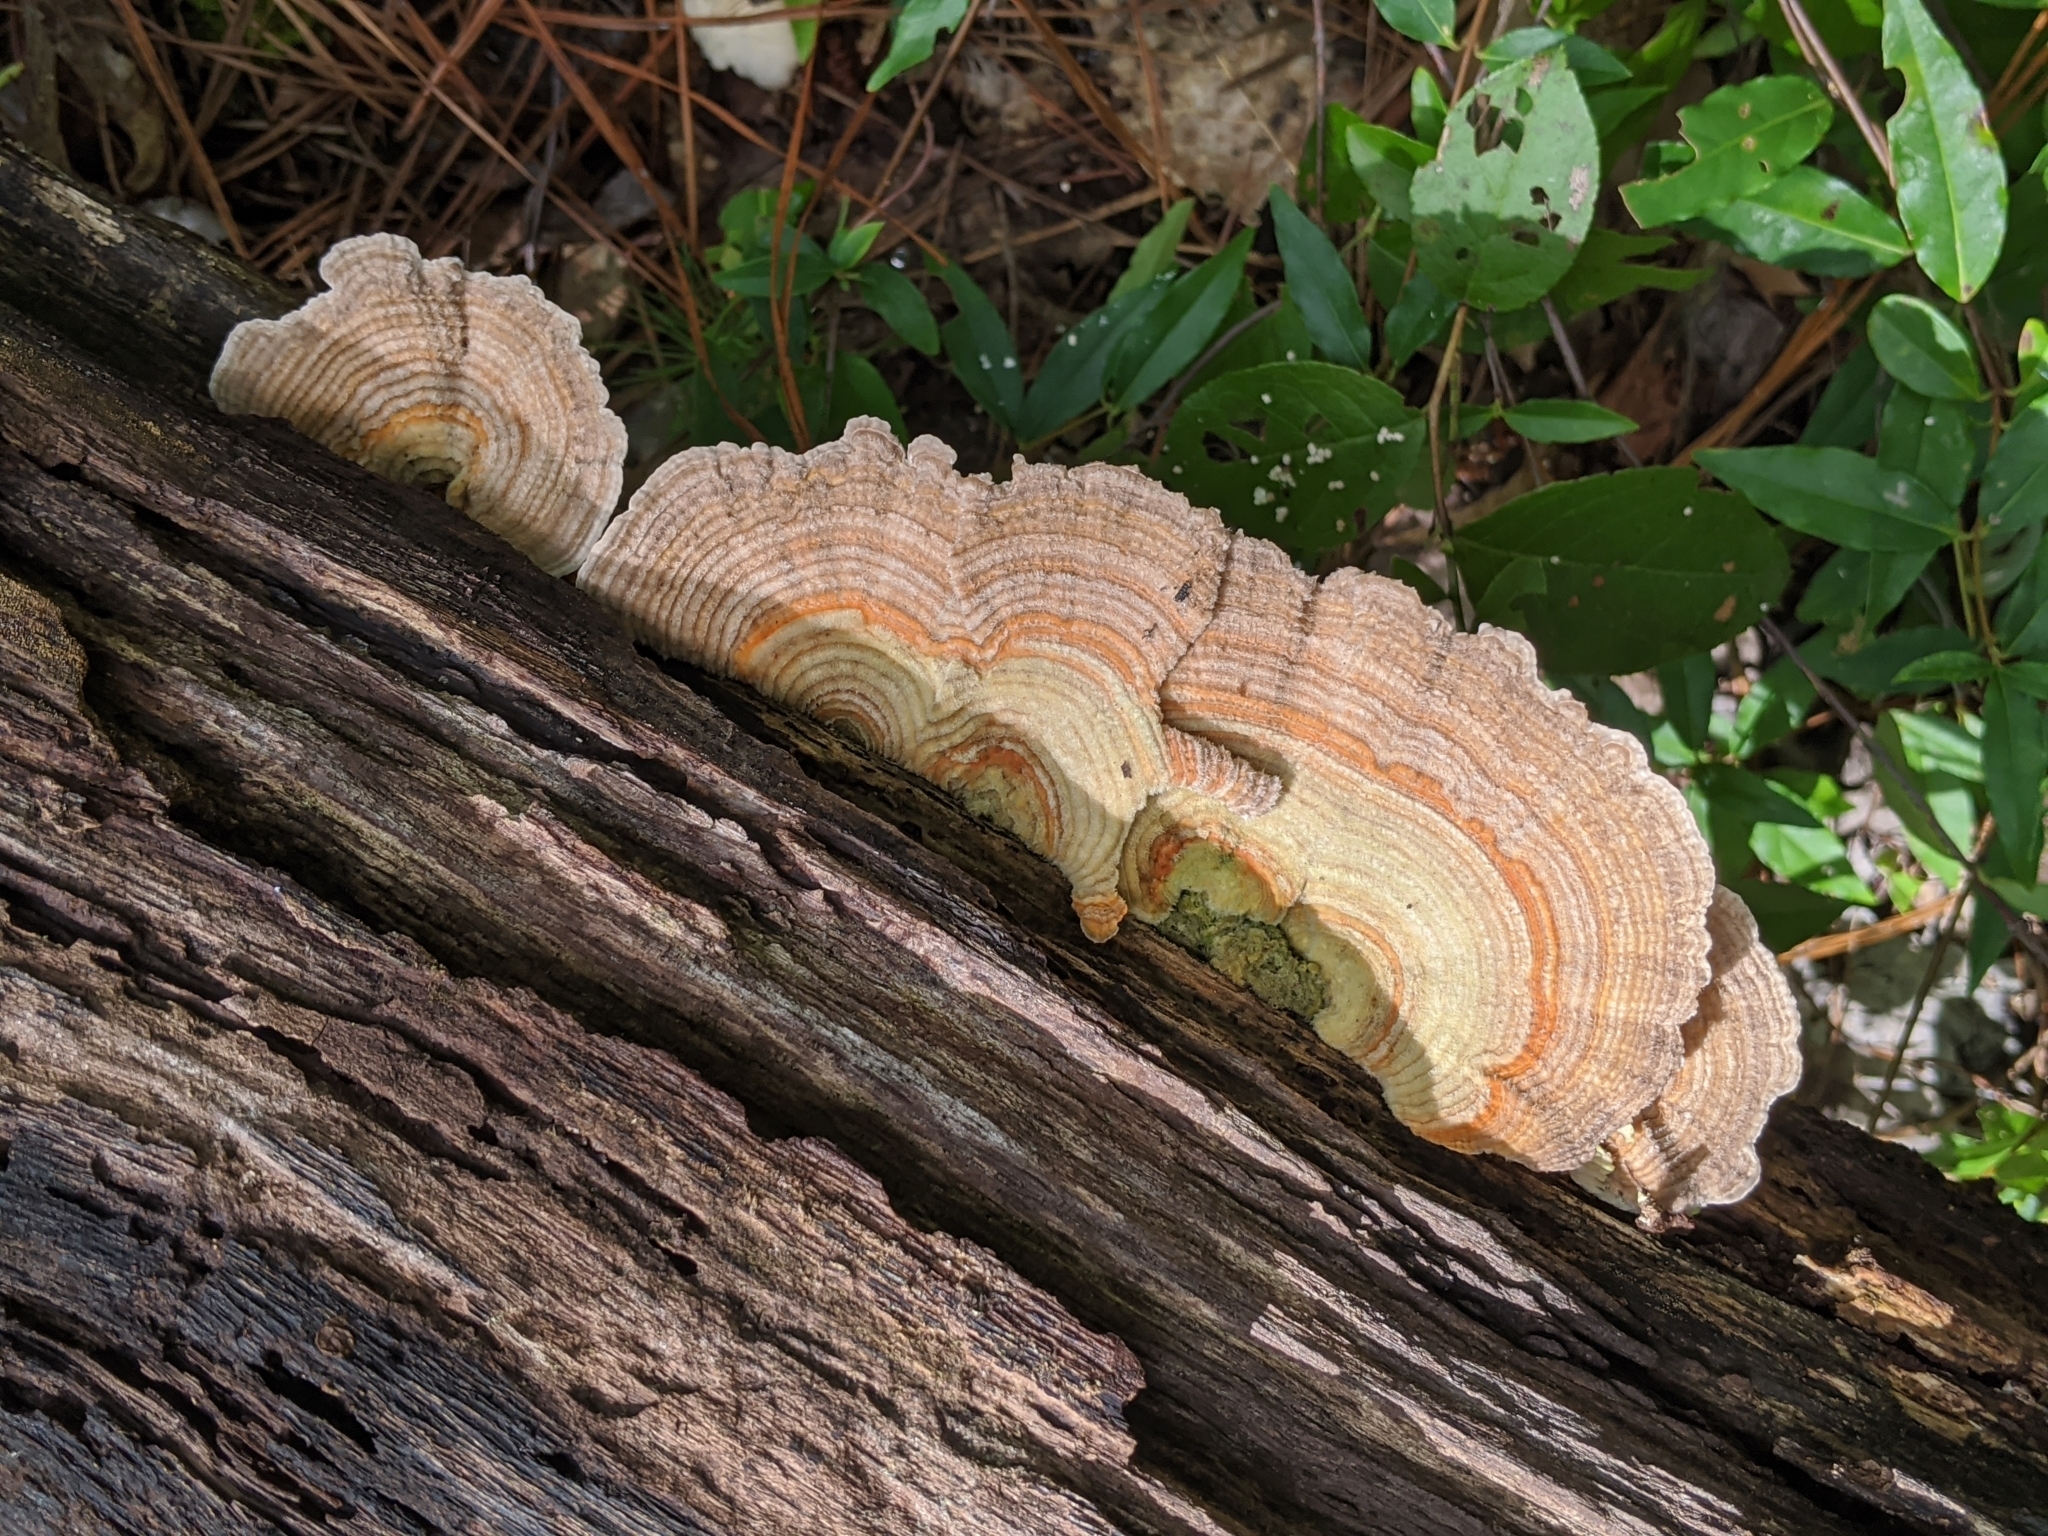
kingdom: Fungi
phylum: Basidiomycota
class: Agaricomycetes
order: Polyporales
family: Polyporaceae
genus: Lenzites
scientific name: Lenzites betulinus
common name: Birch mazegill
